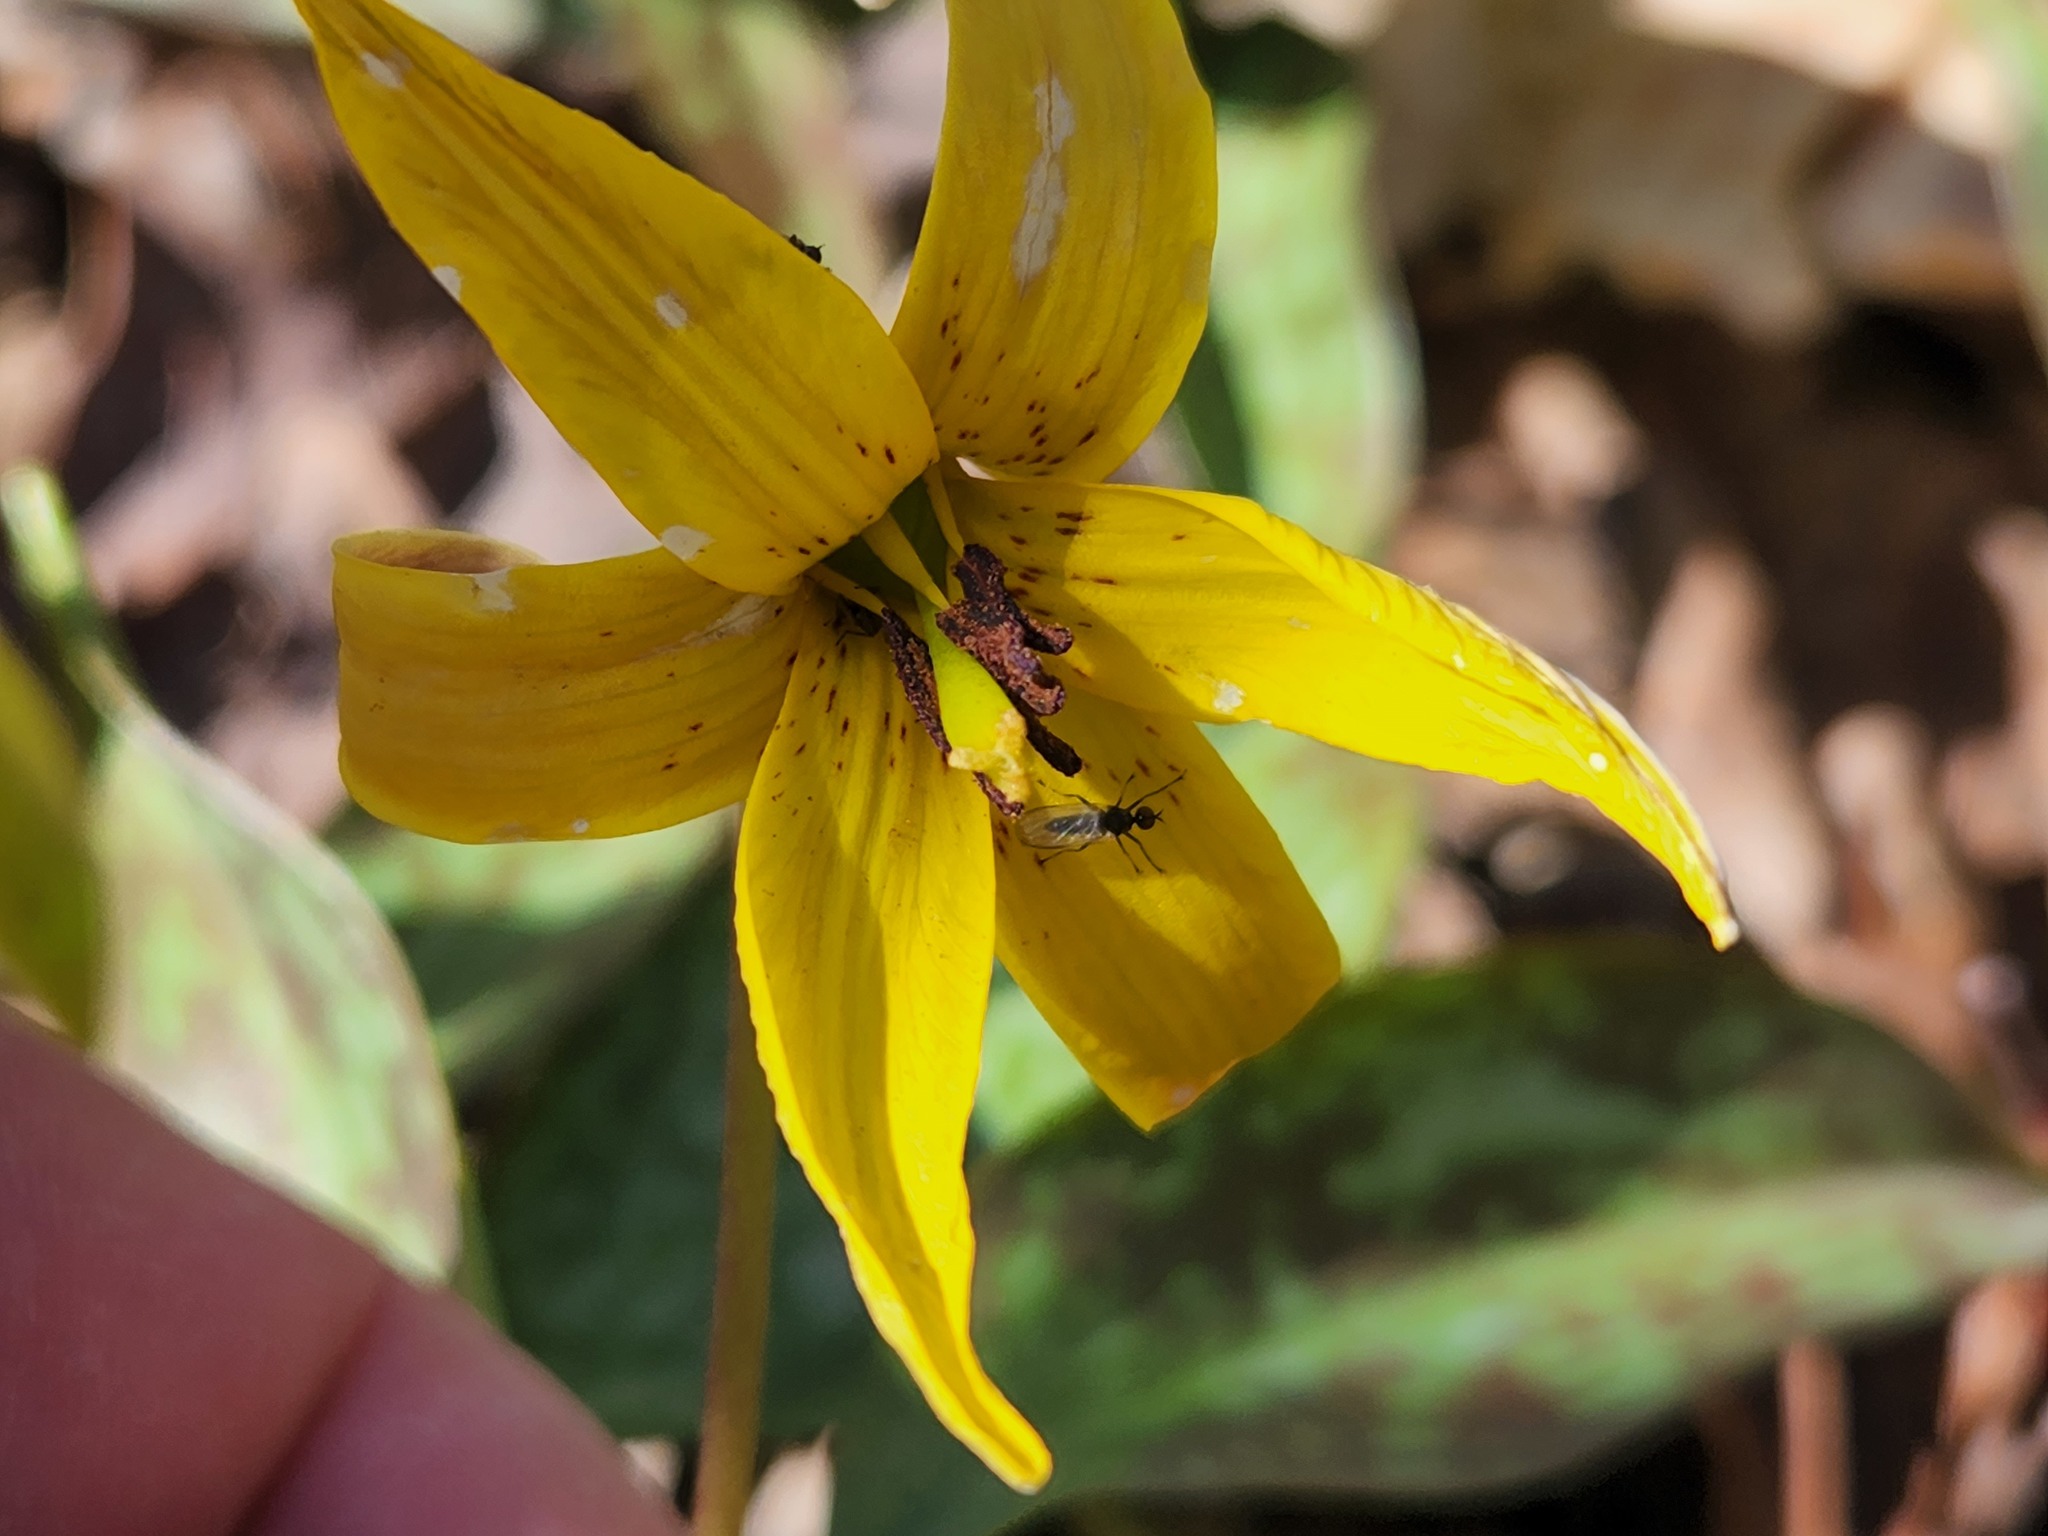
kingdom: Plantae
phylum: Tracheophyta
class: Liliopsida
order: Liliales
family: Liliaceae
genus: Erythronium
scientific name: Erythronium americanum
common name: Yellow adder's-tongue
